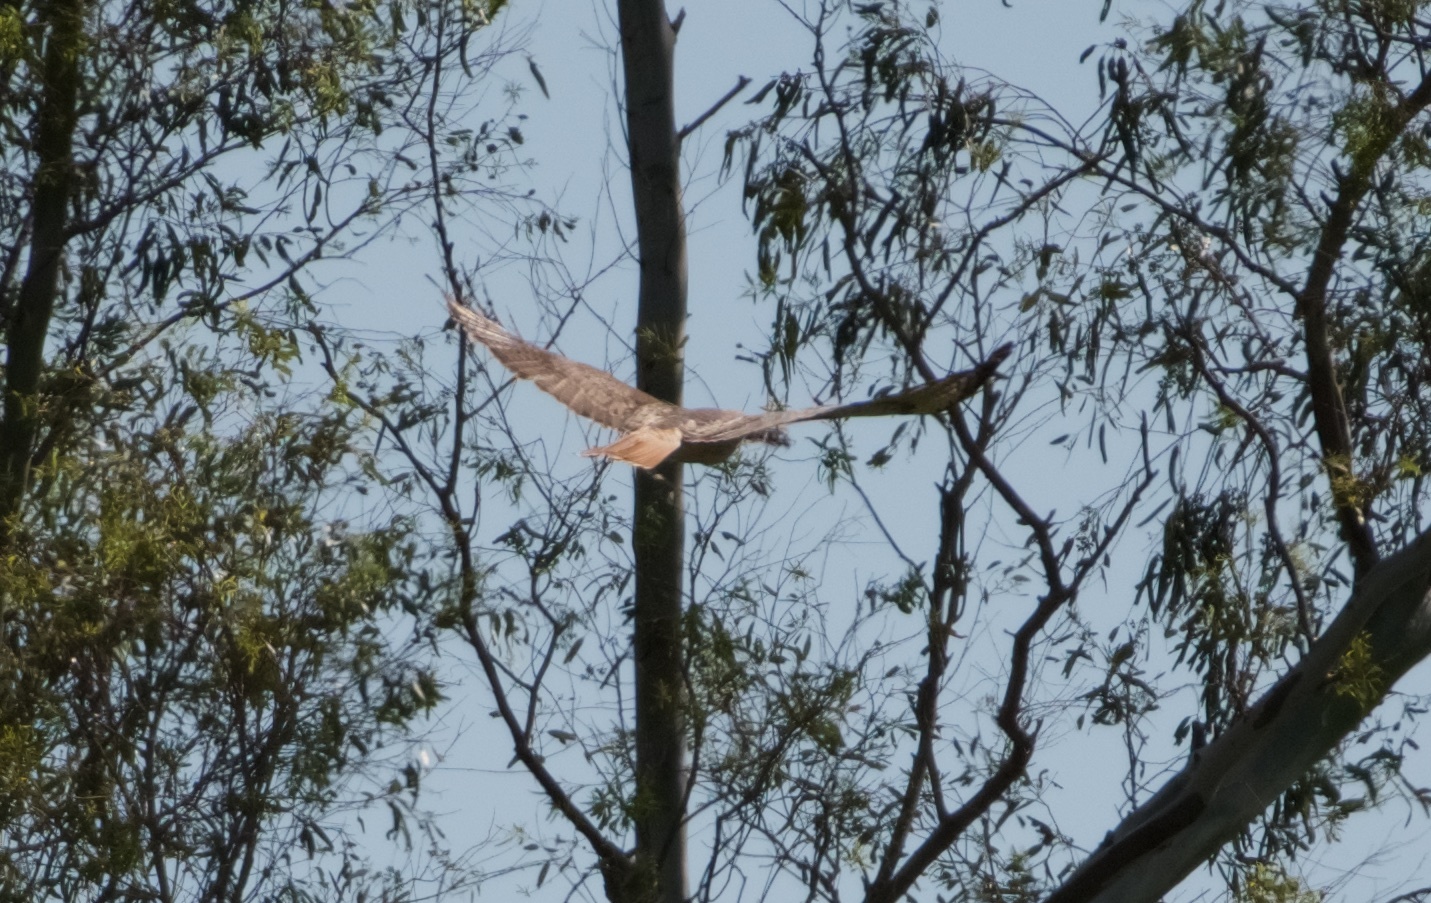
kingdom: Animalia
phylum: Chordata
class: Aves
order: Accipitriformes
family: Accipitridae
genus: Buteo
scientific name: Buteo jamaicensis
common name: Red-tailed hawk
